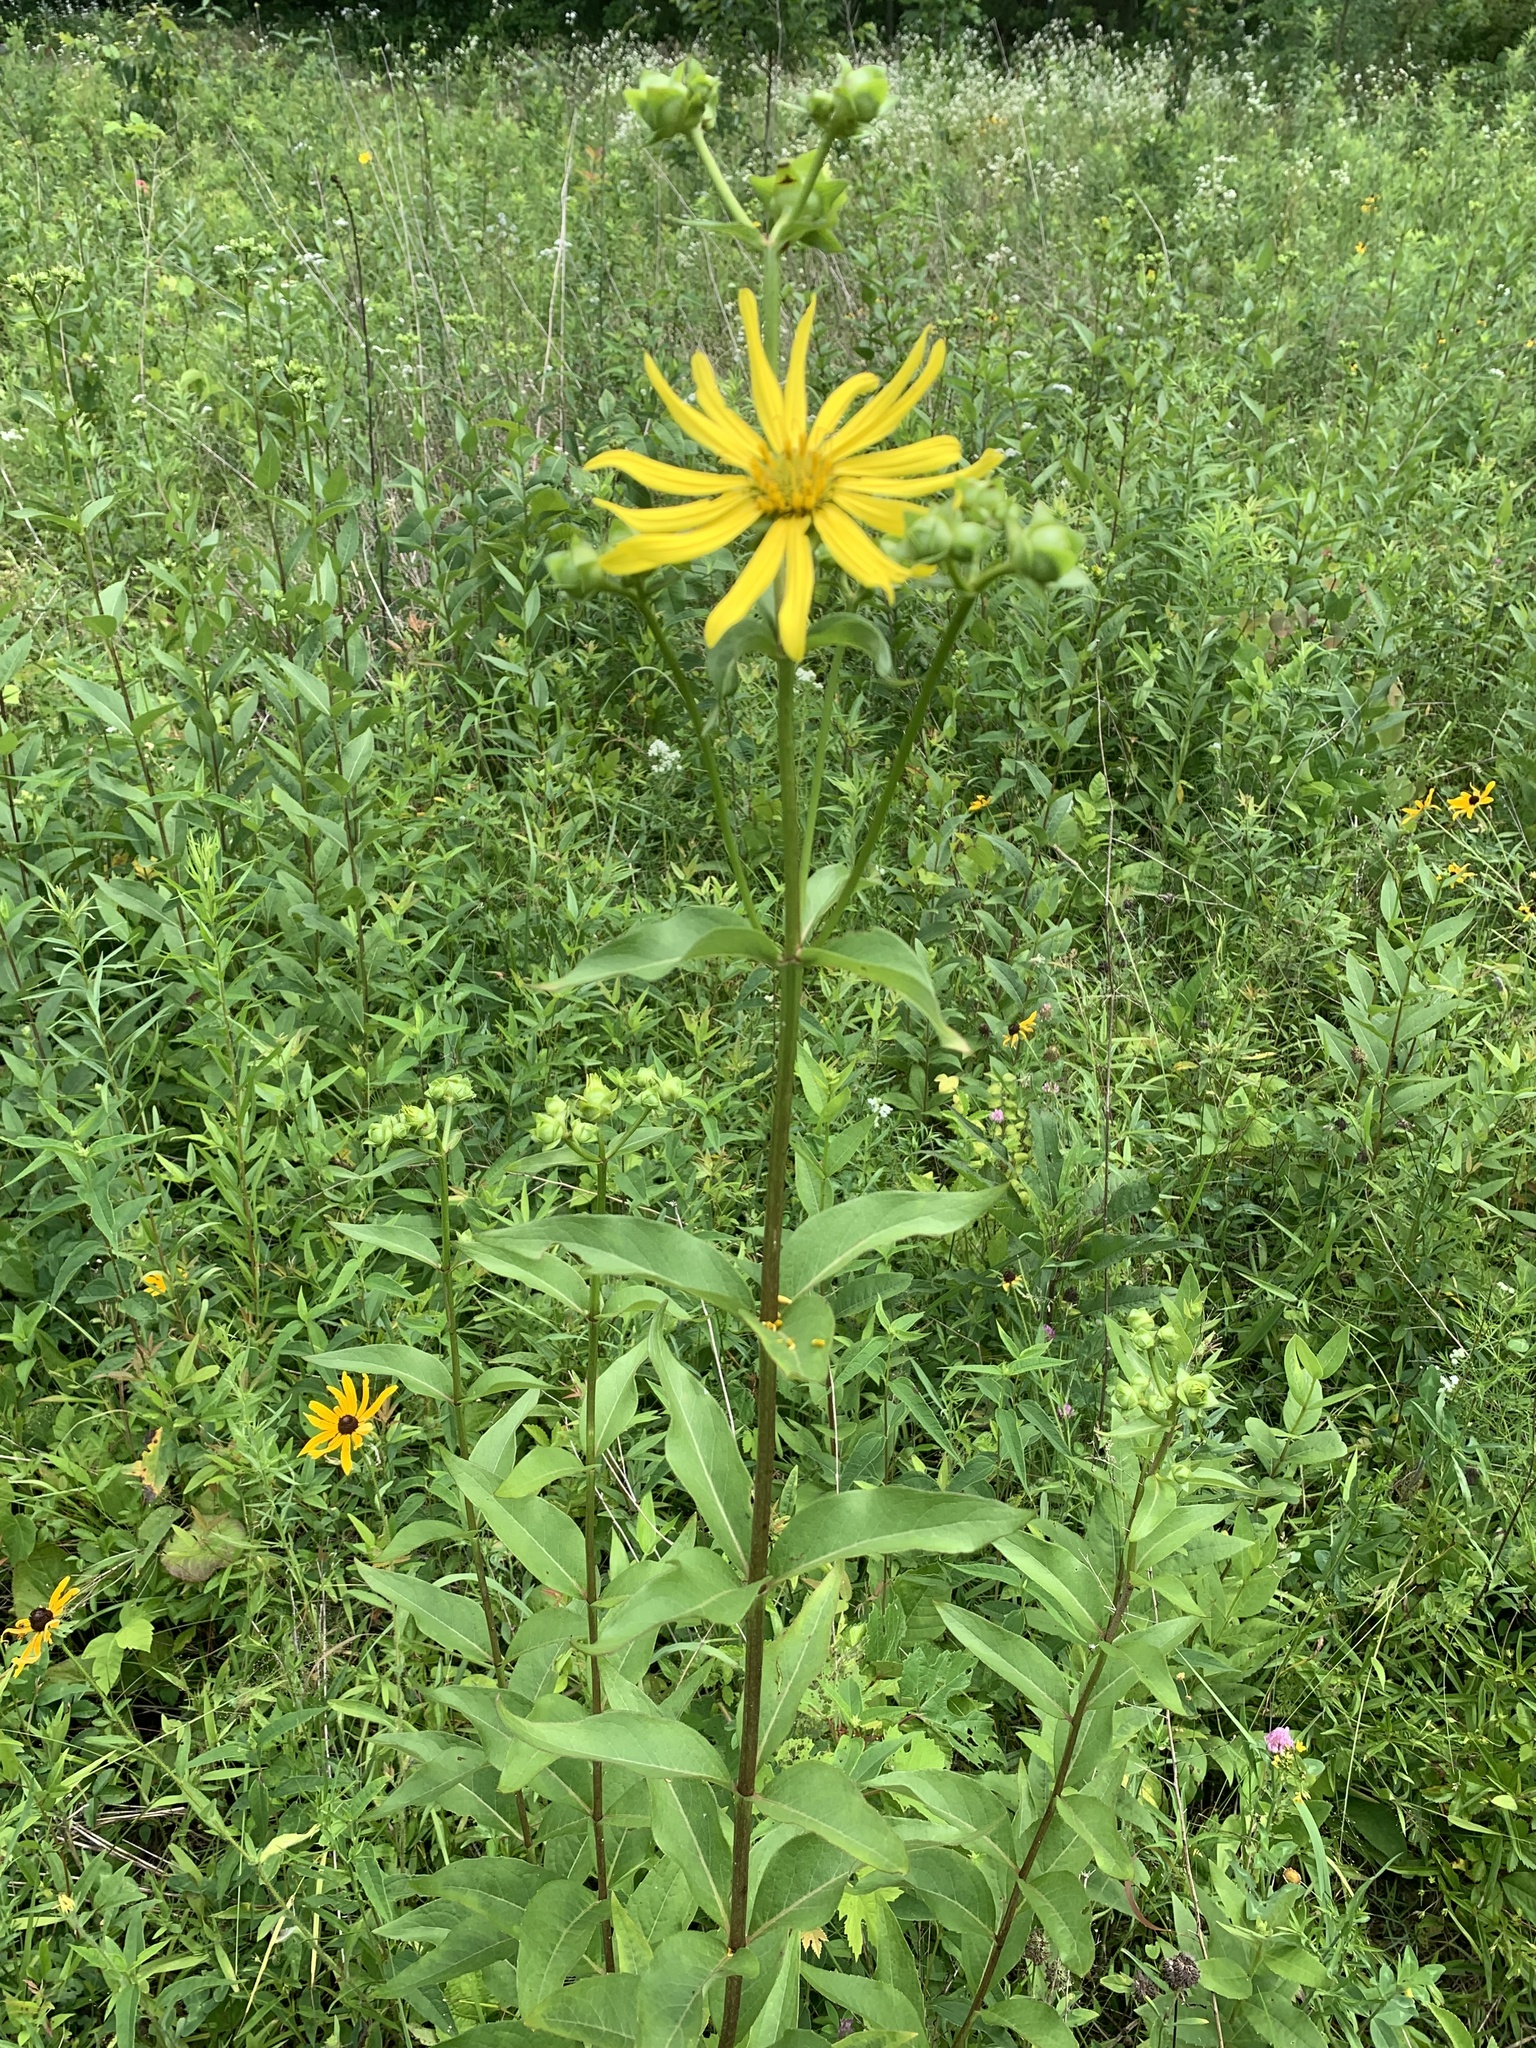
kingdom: Plantae
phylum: Tracheophyta
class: Magnoliopsida
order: Asterales
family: Asteraceae
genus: Silphium
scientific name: Silphium asteriscus
